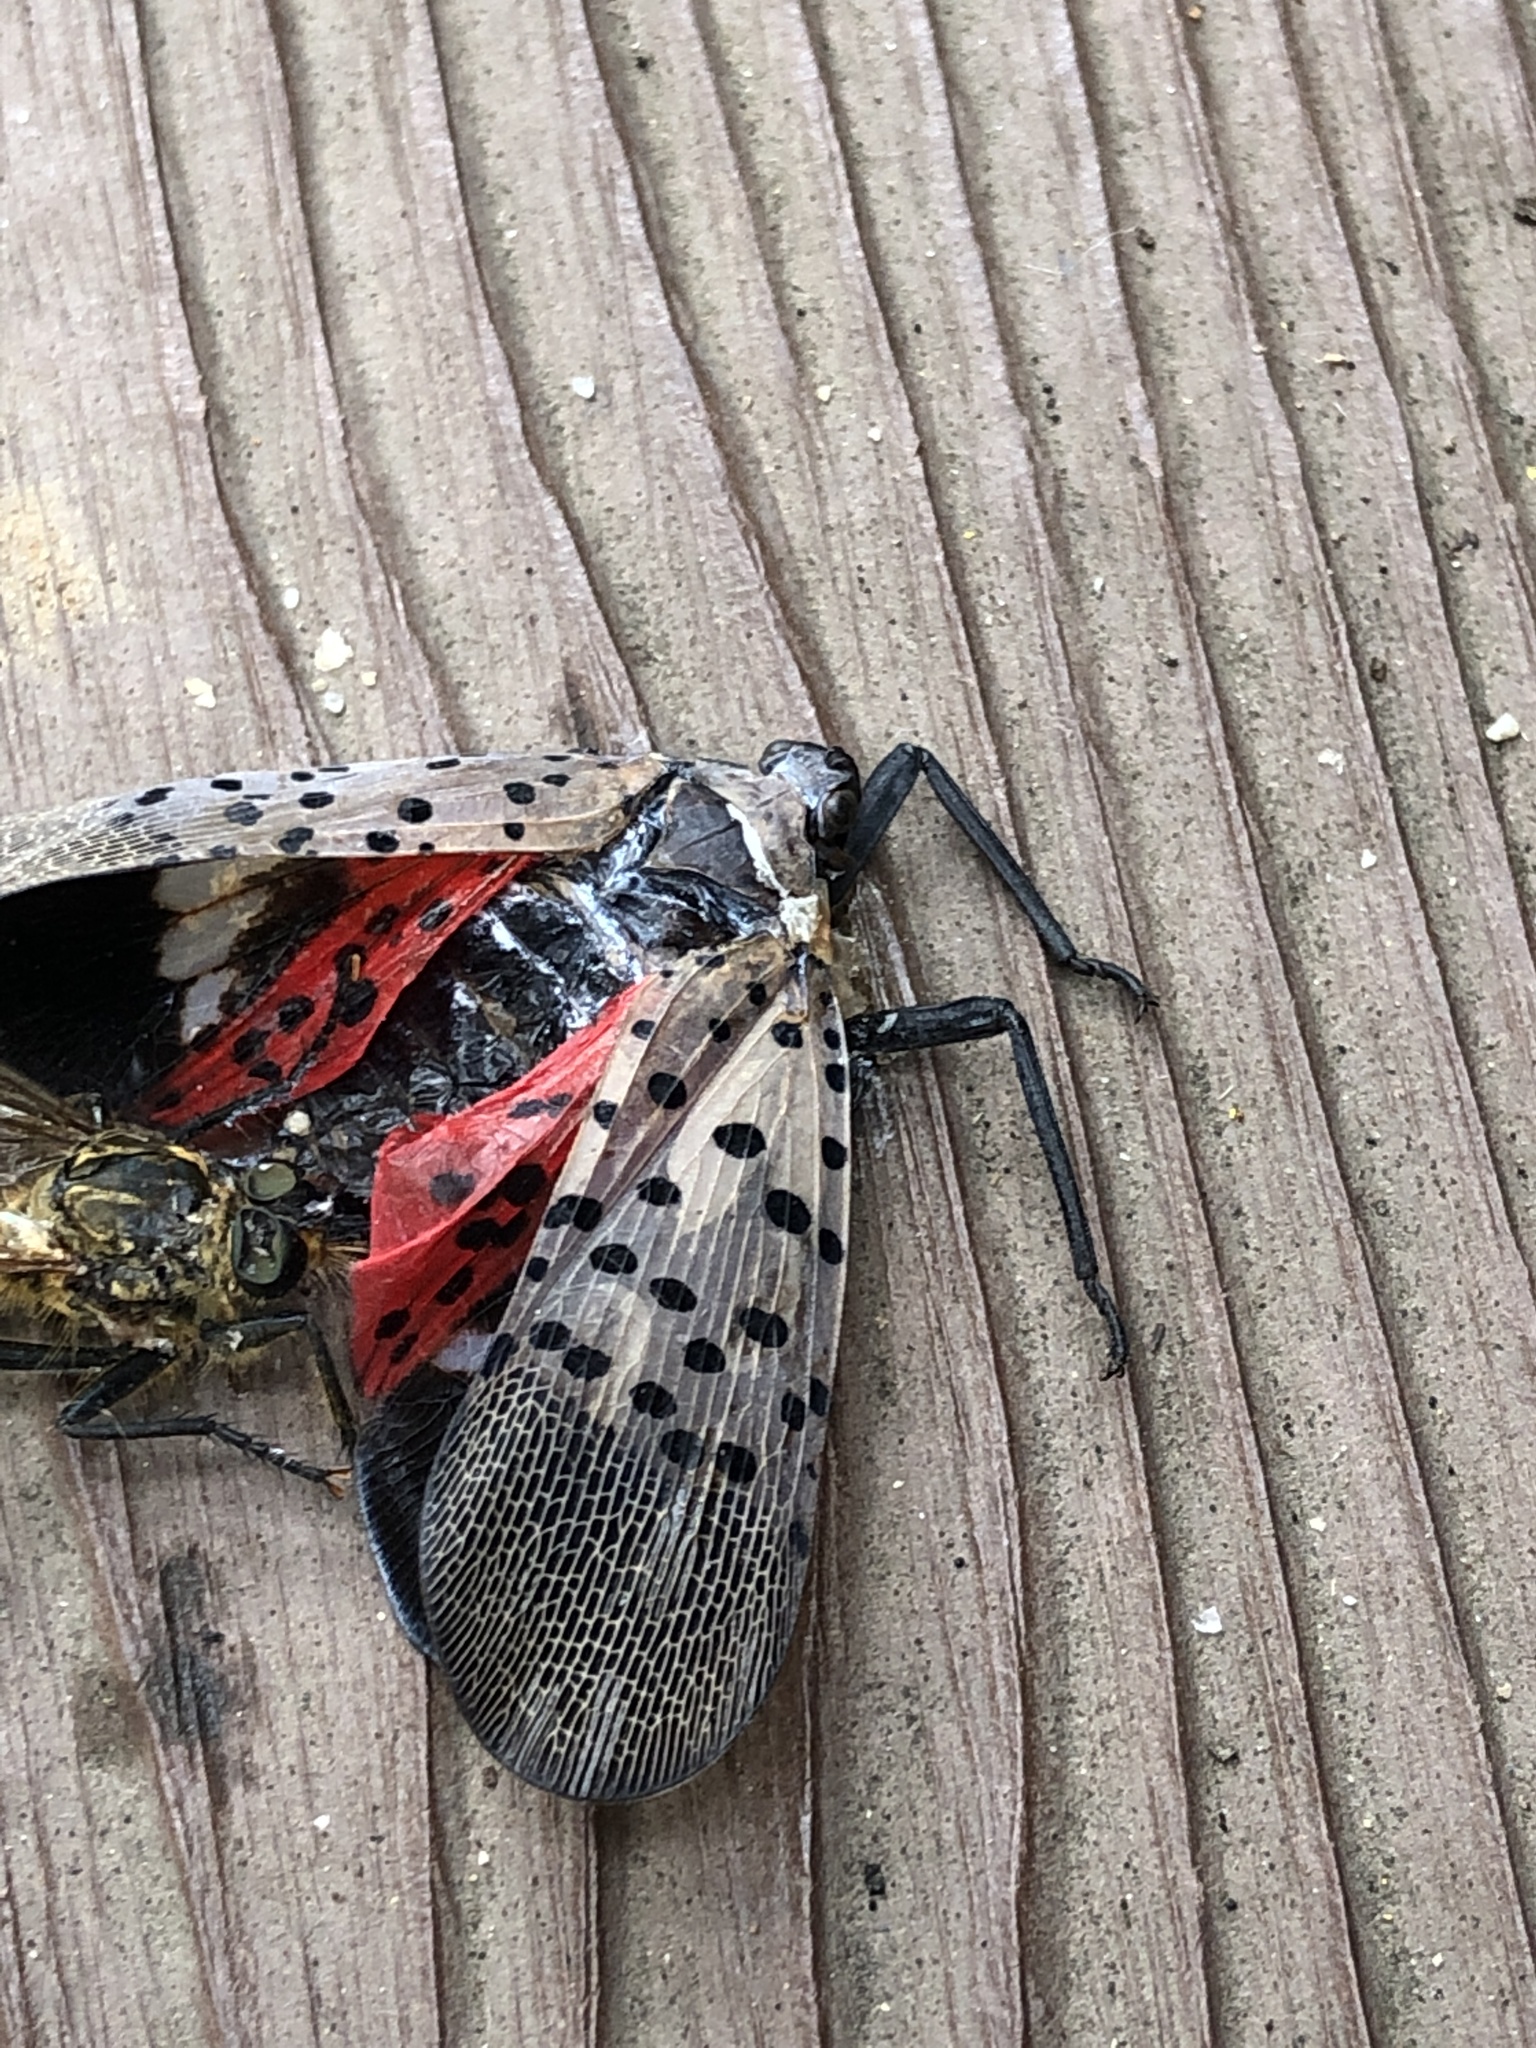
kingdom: Animalia
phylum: Arthropoda
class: Insecta
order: Hemiptera
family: Fulgoridae
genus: Lycorma
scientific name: Lycorma delicatula
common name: Spotted lanternfly
